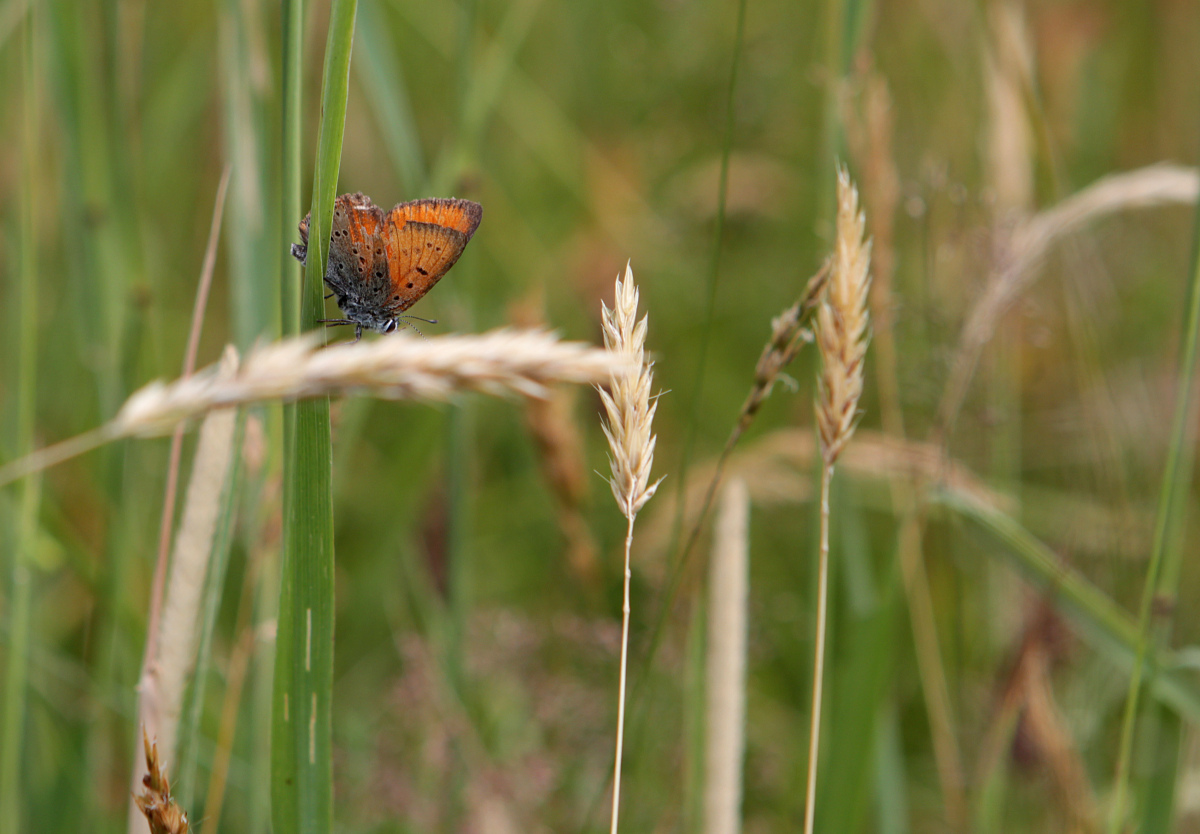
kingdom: Animalia
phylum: Arthropoda
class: Insecta
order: Lepidoptera
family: Lycaenidae
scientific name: Lycaenidae
